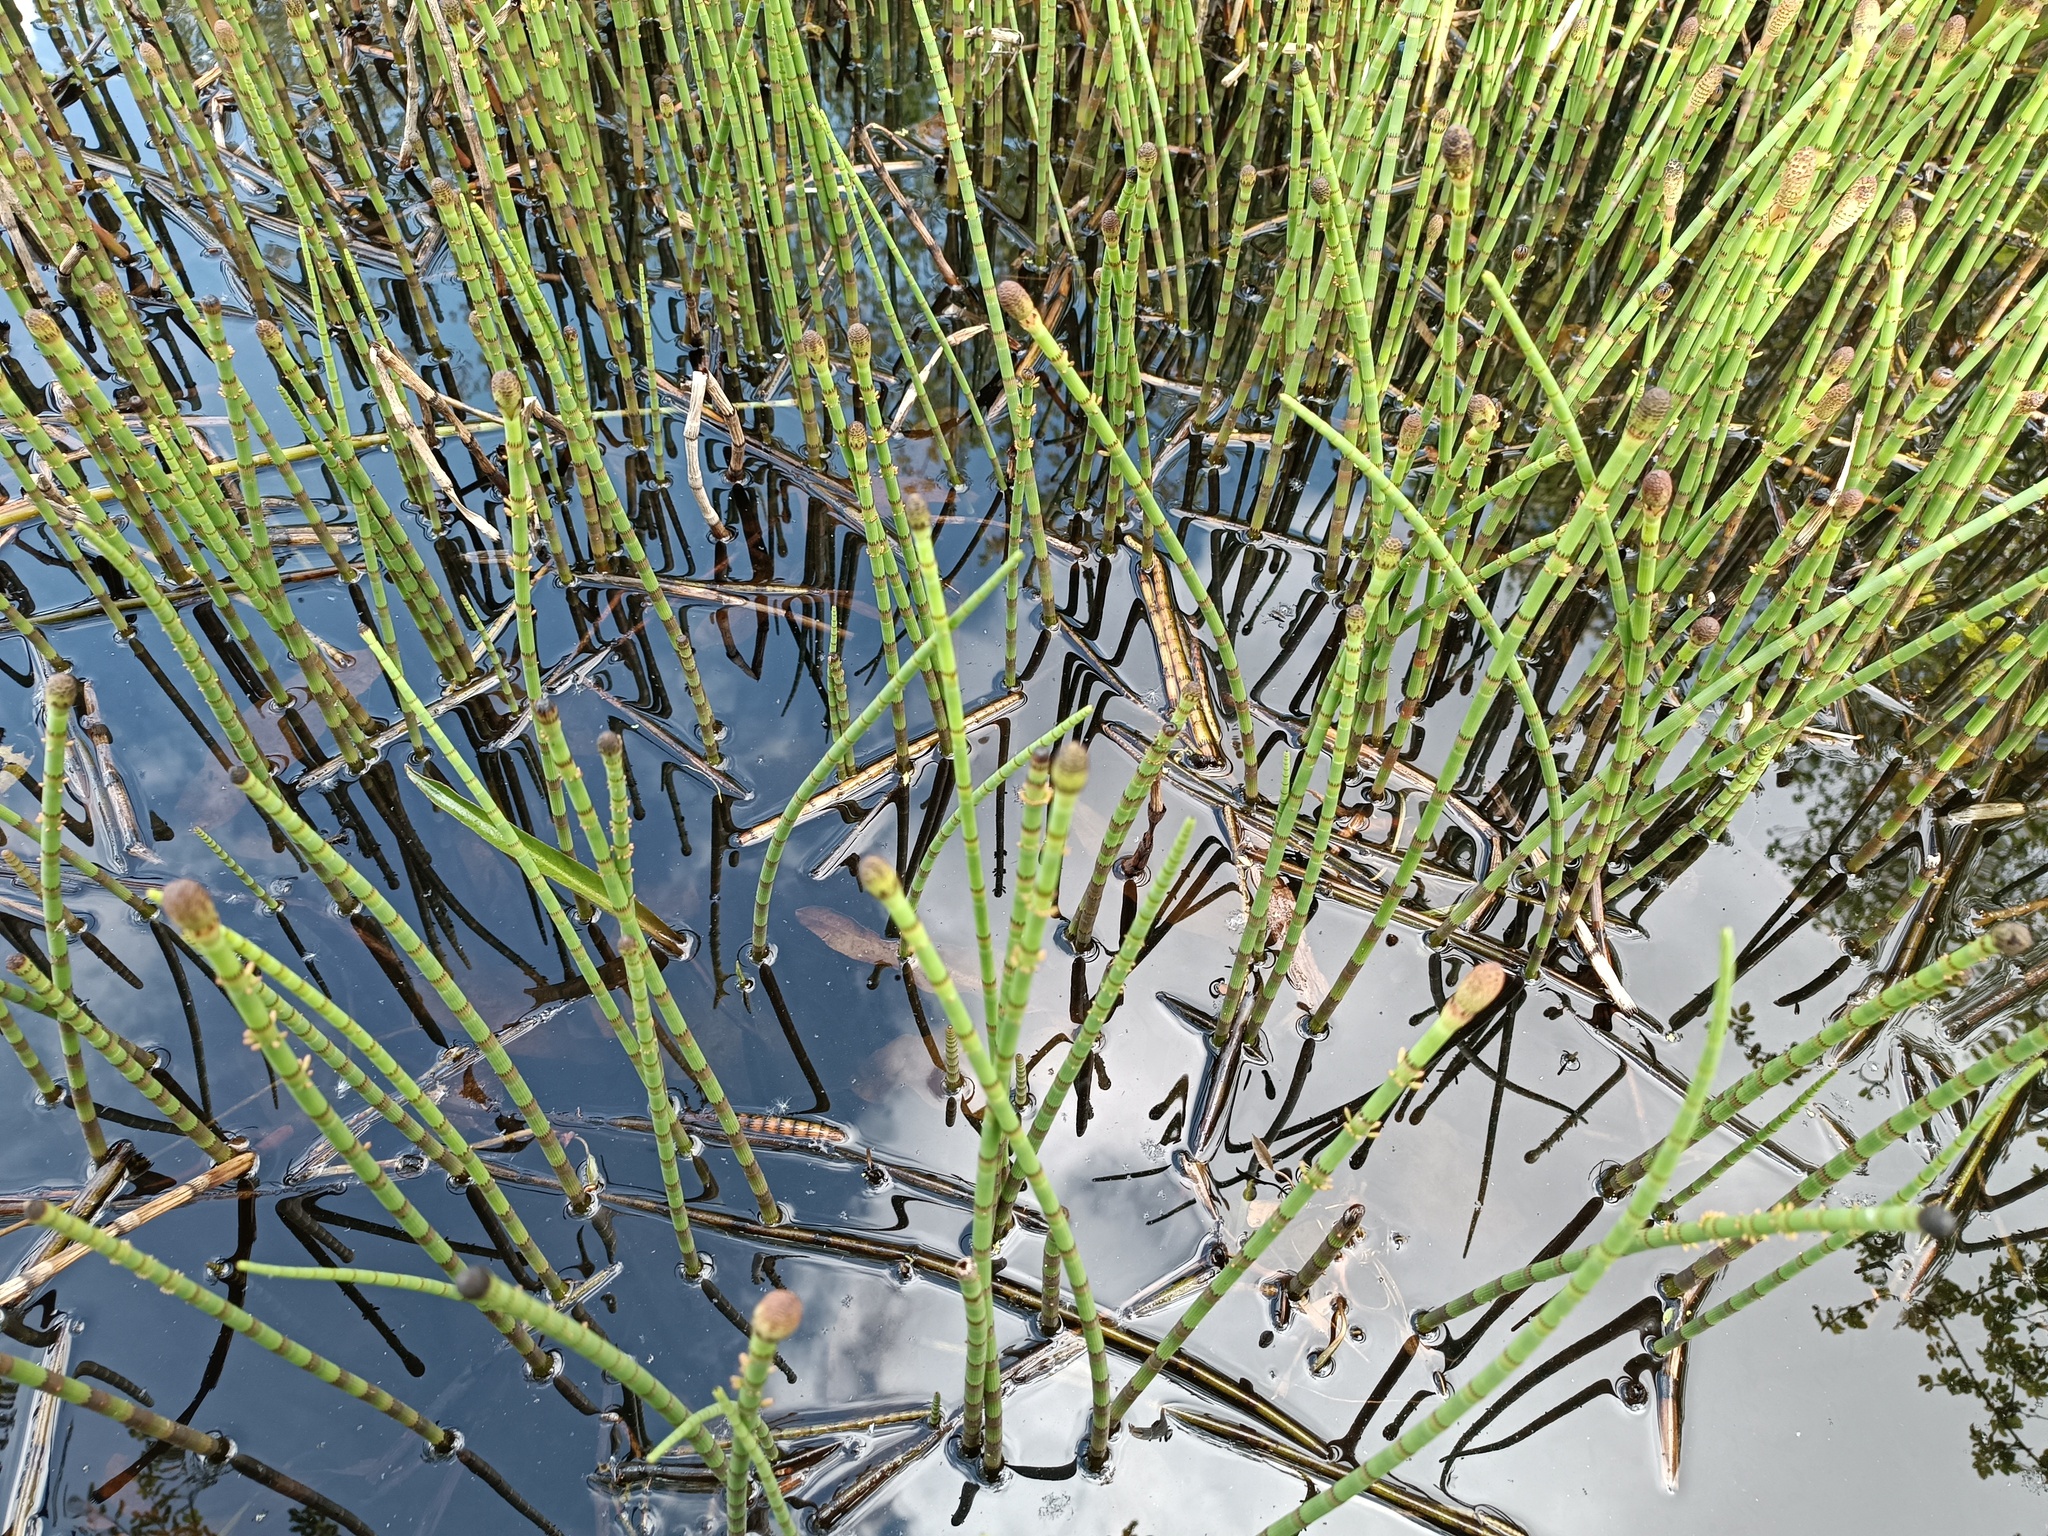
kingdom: Plantae
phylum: Tracheophyta
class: Polypodiopsida
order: Equisetales
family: Equisetaceae
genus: Equisetum
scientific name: Equisetum fluviatile
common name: Water horsetail
